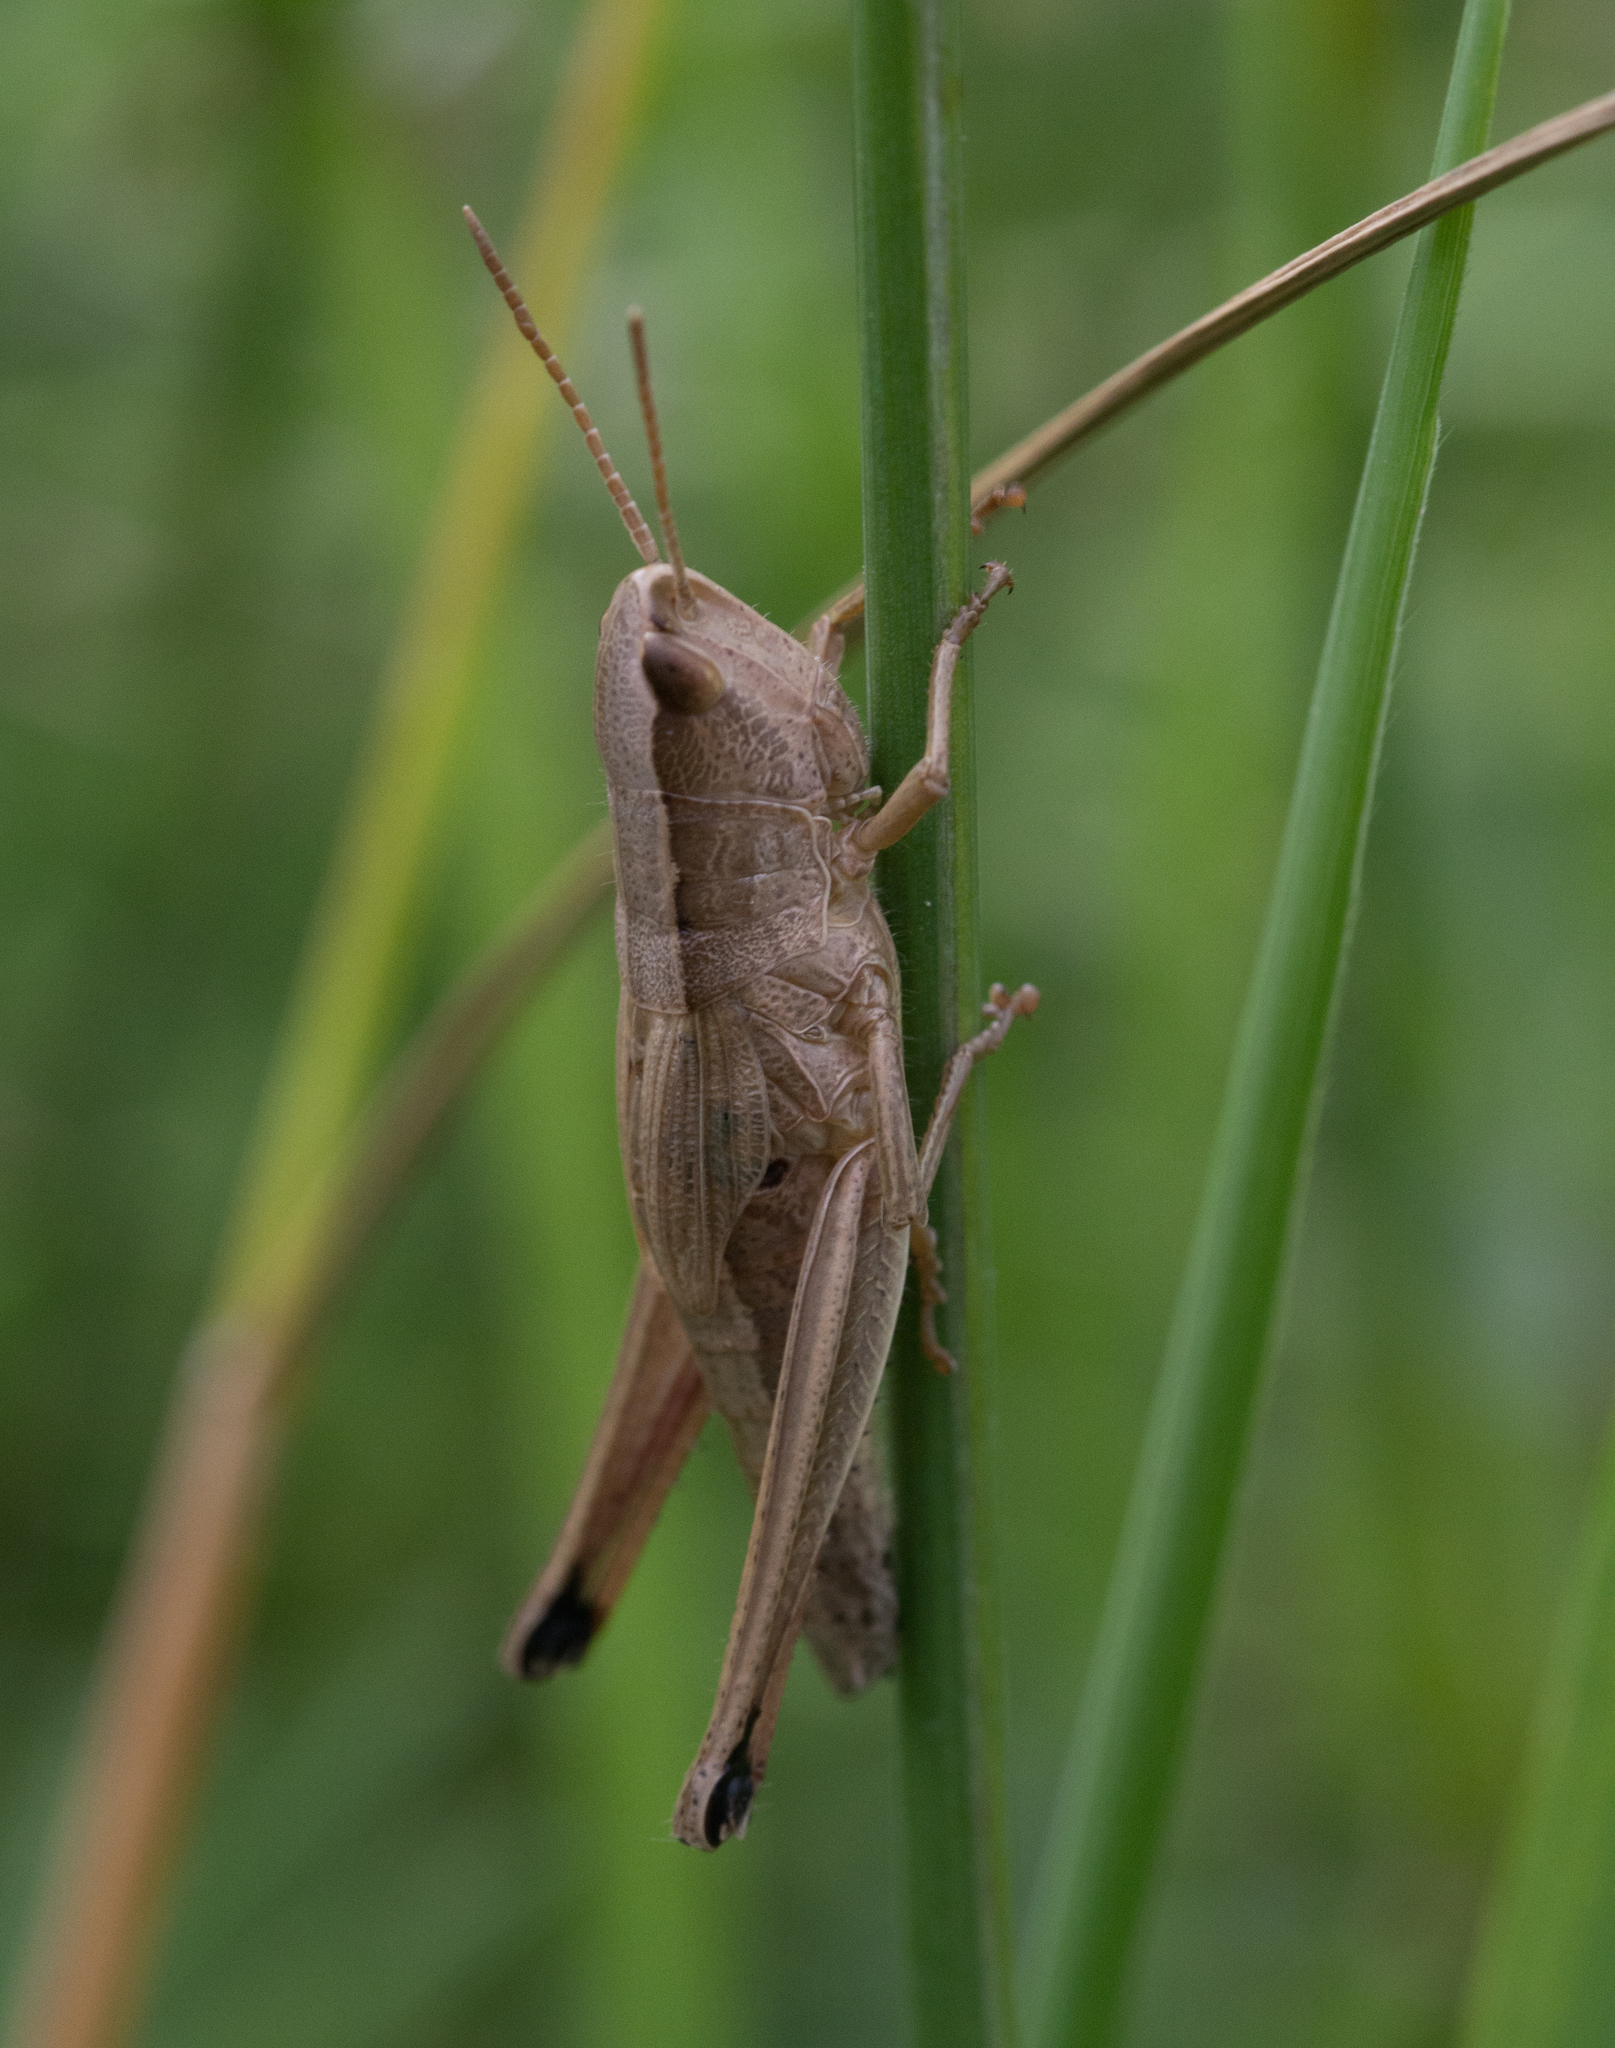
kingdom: Animalia
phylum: Arthropoda
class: Insecta
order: Orthoptera
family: Acrididae
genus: Chrysochraon
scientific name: Chrysochraon dispar
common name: Large gold grasshopper
